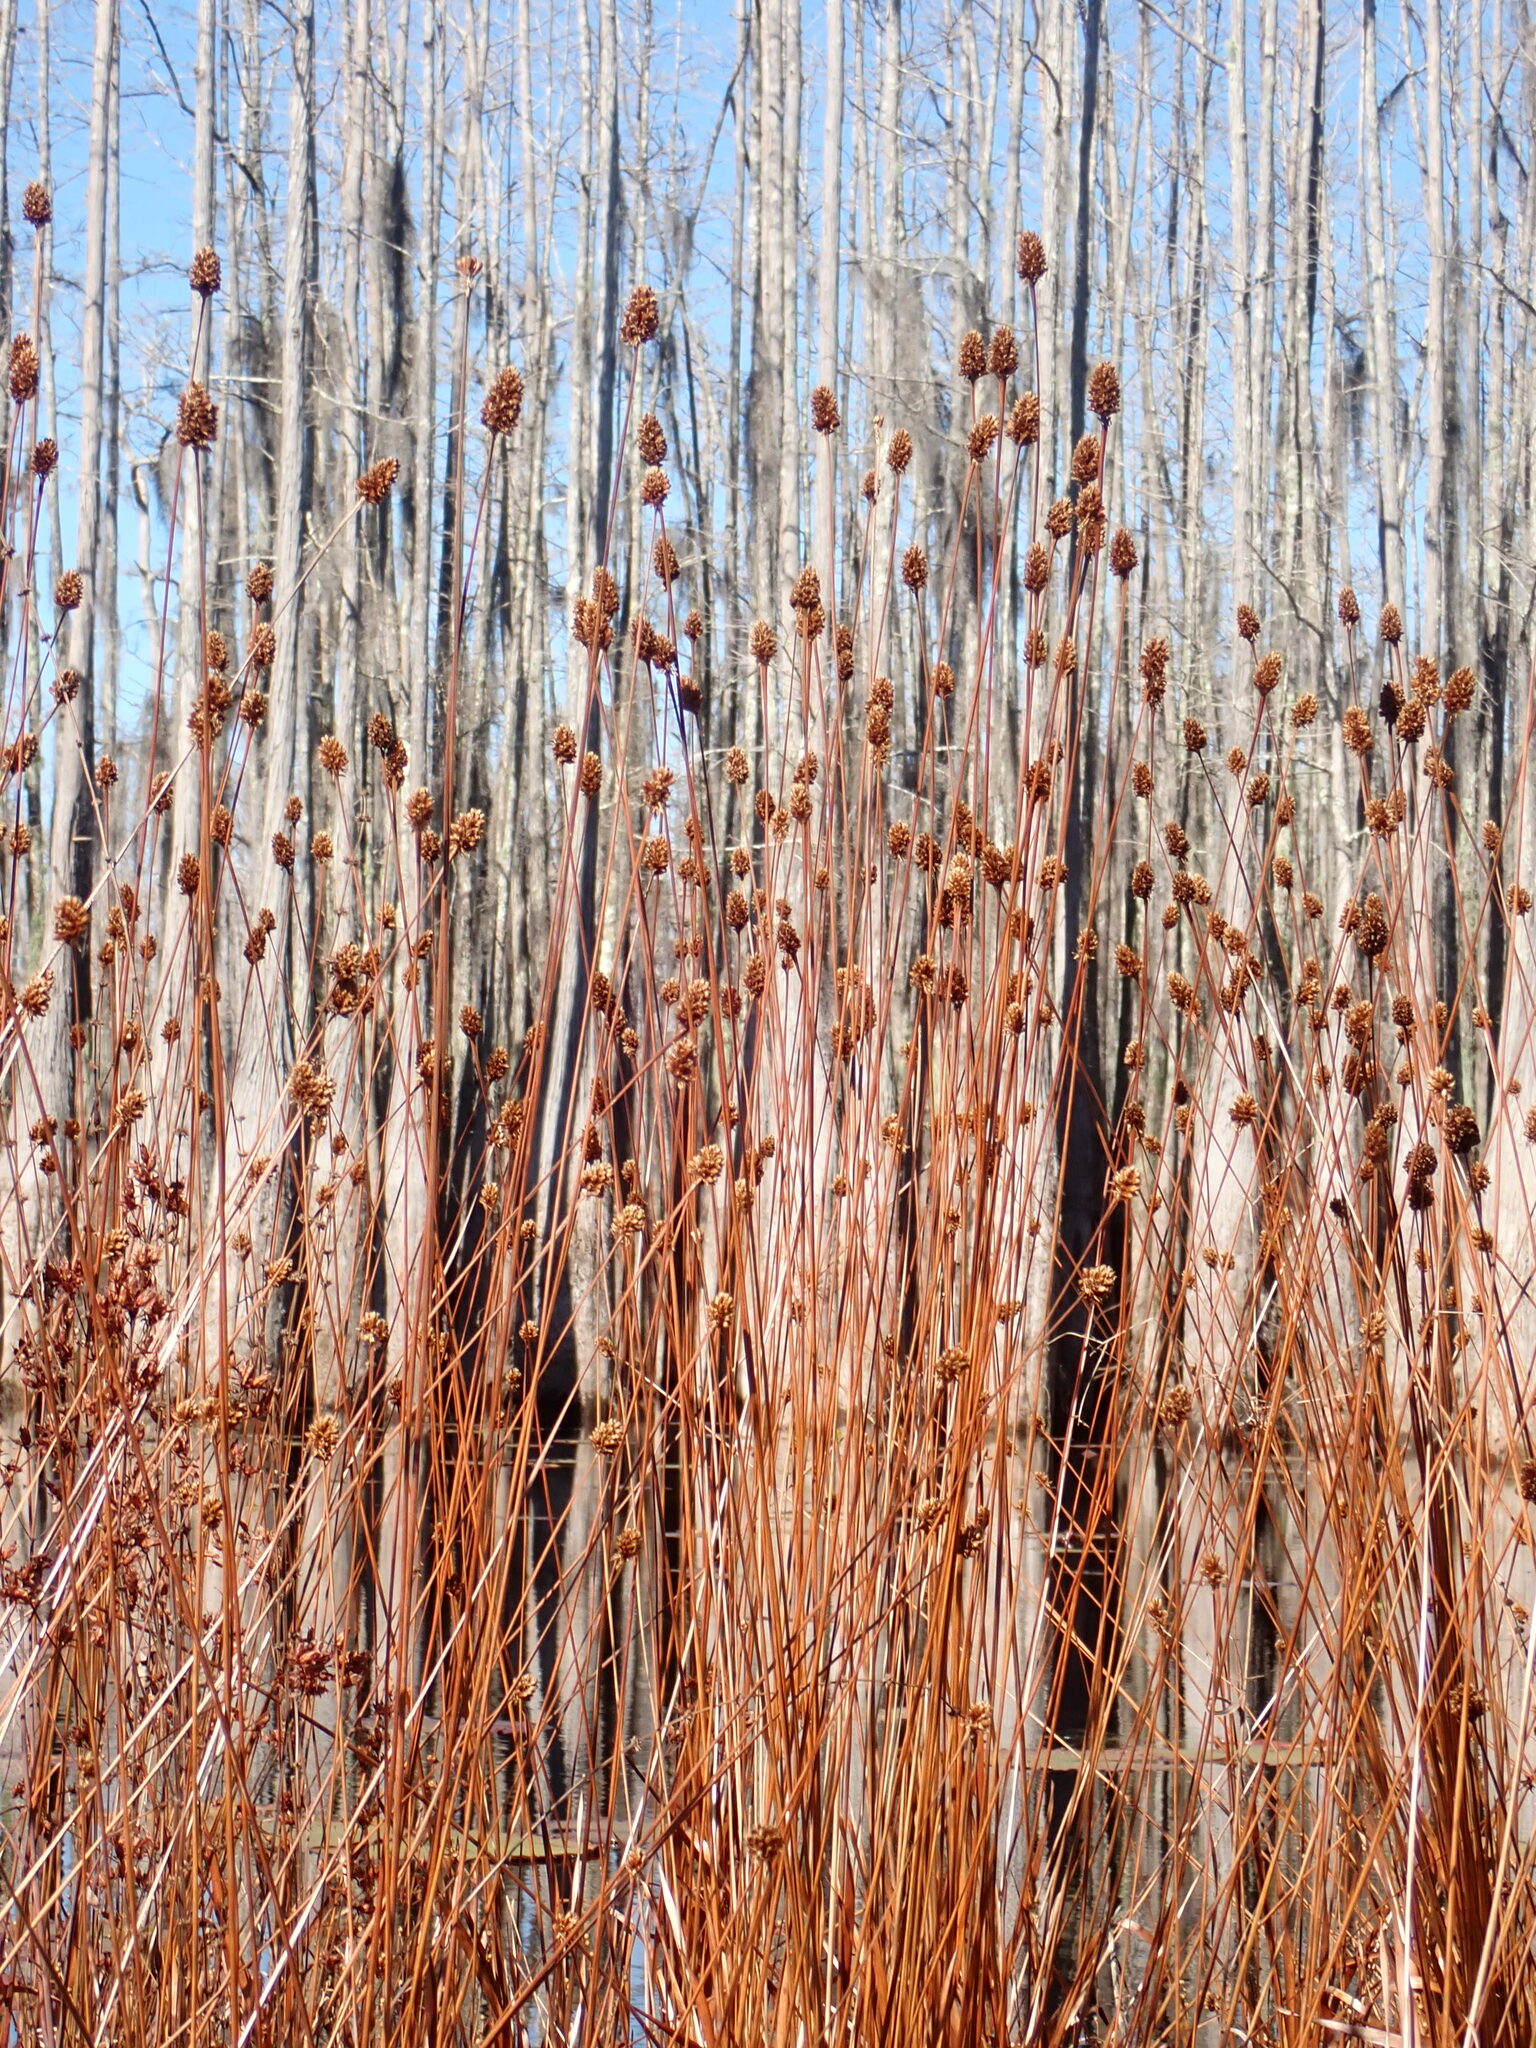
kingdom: Plantae
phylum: Tracheophyta
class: Liliopsida
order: Poales
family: Xyridaceae
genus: Xyris
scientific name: Xyris fimbriata
